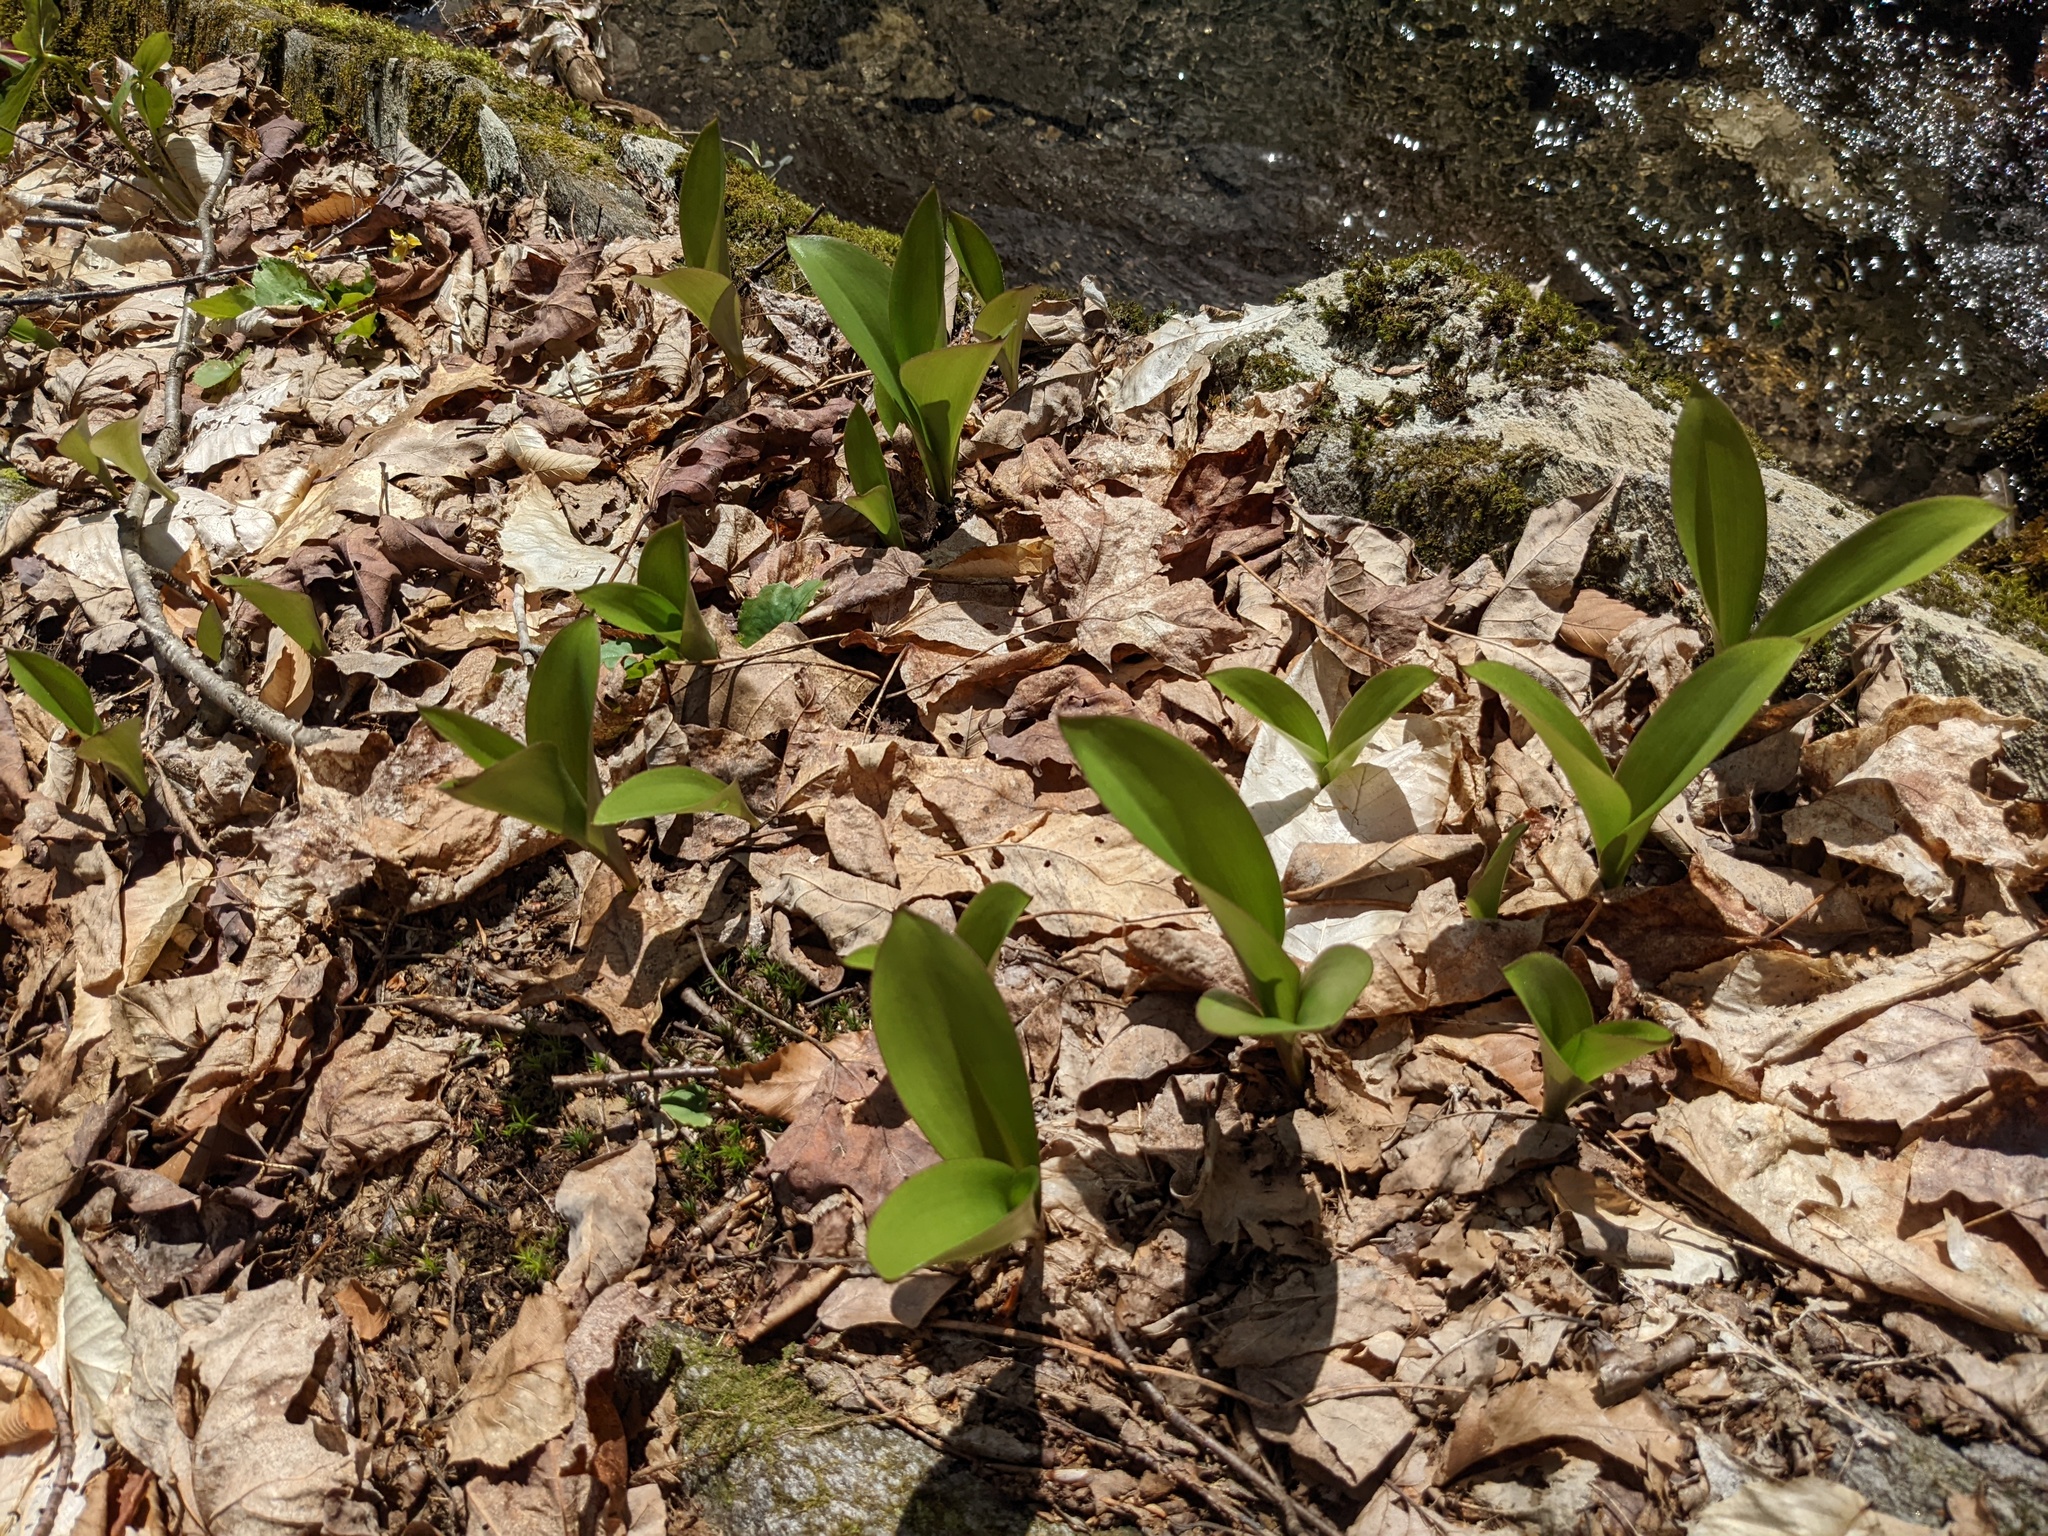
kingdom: Plantae
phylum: Tracheophyta
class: Liliopsida
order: Liliales
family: Liliaceae
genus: Clintonia
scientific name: Clintonia borealis
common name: Yellow clintonia
